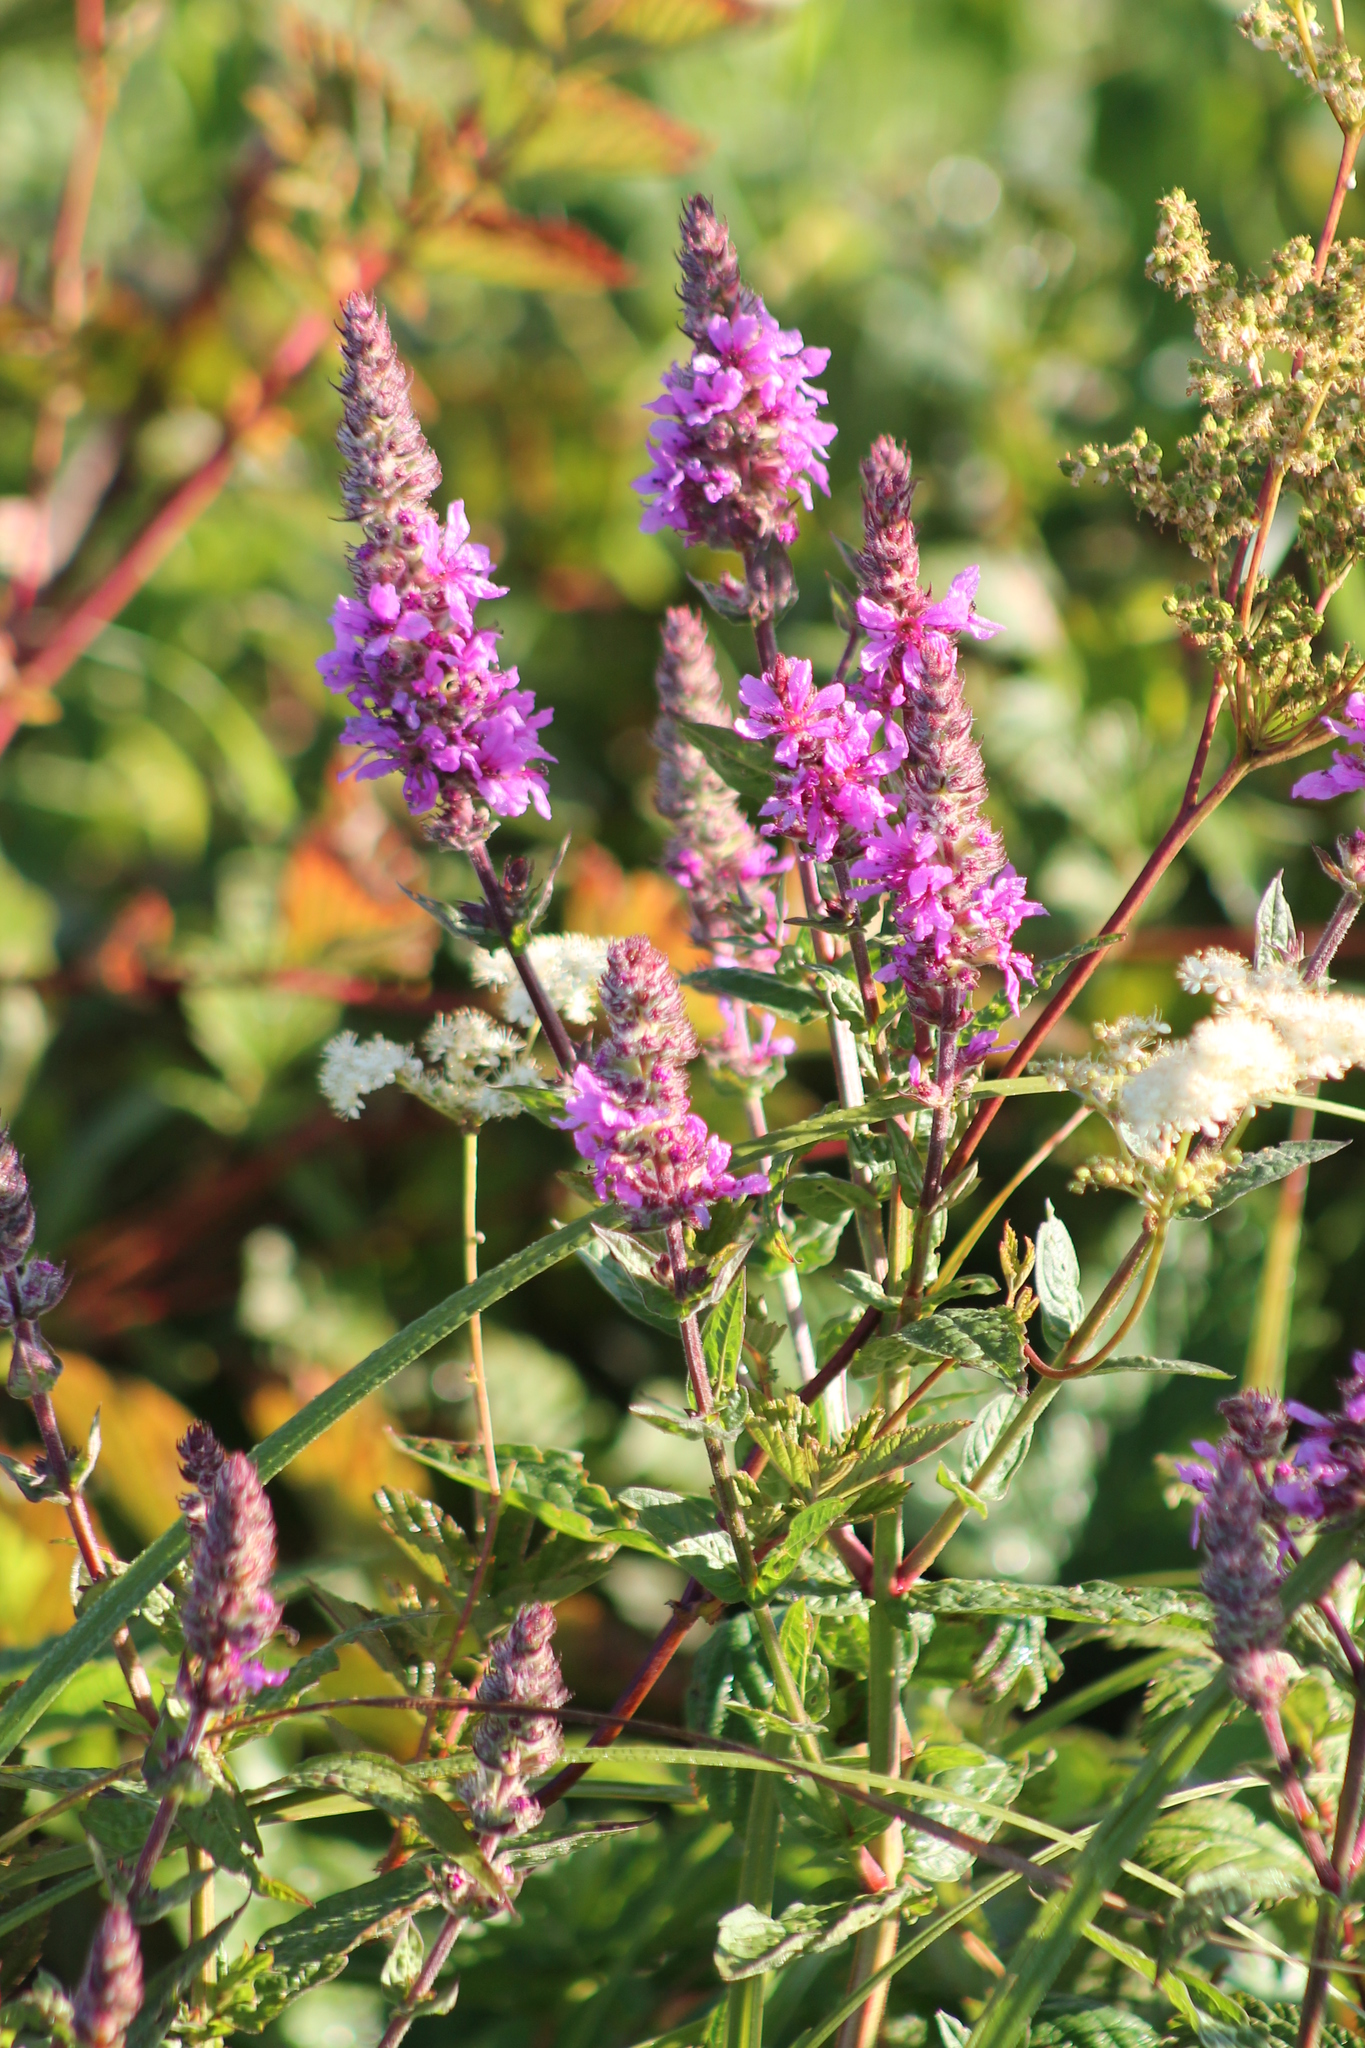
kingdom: Plantae
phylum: Tracheophyta
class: Magnoliopsida
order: Myrtales
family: Lythraceae
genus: Lythrum
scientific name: Lythrum salicaria
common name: Purple loosestrife
